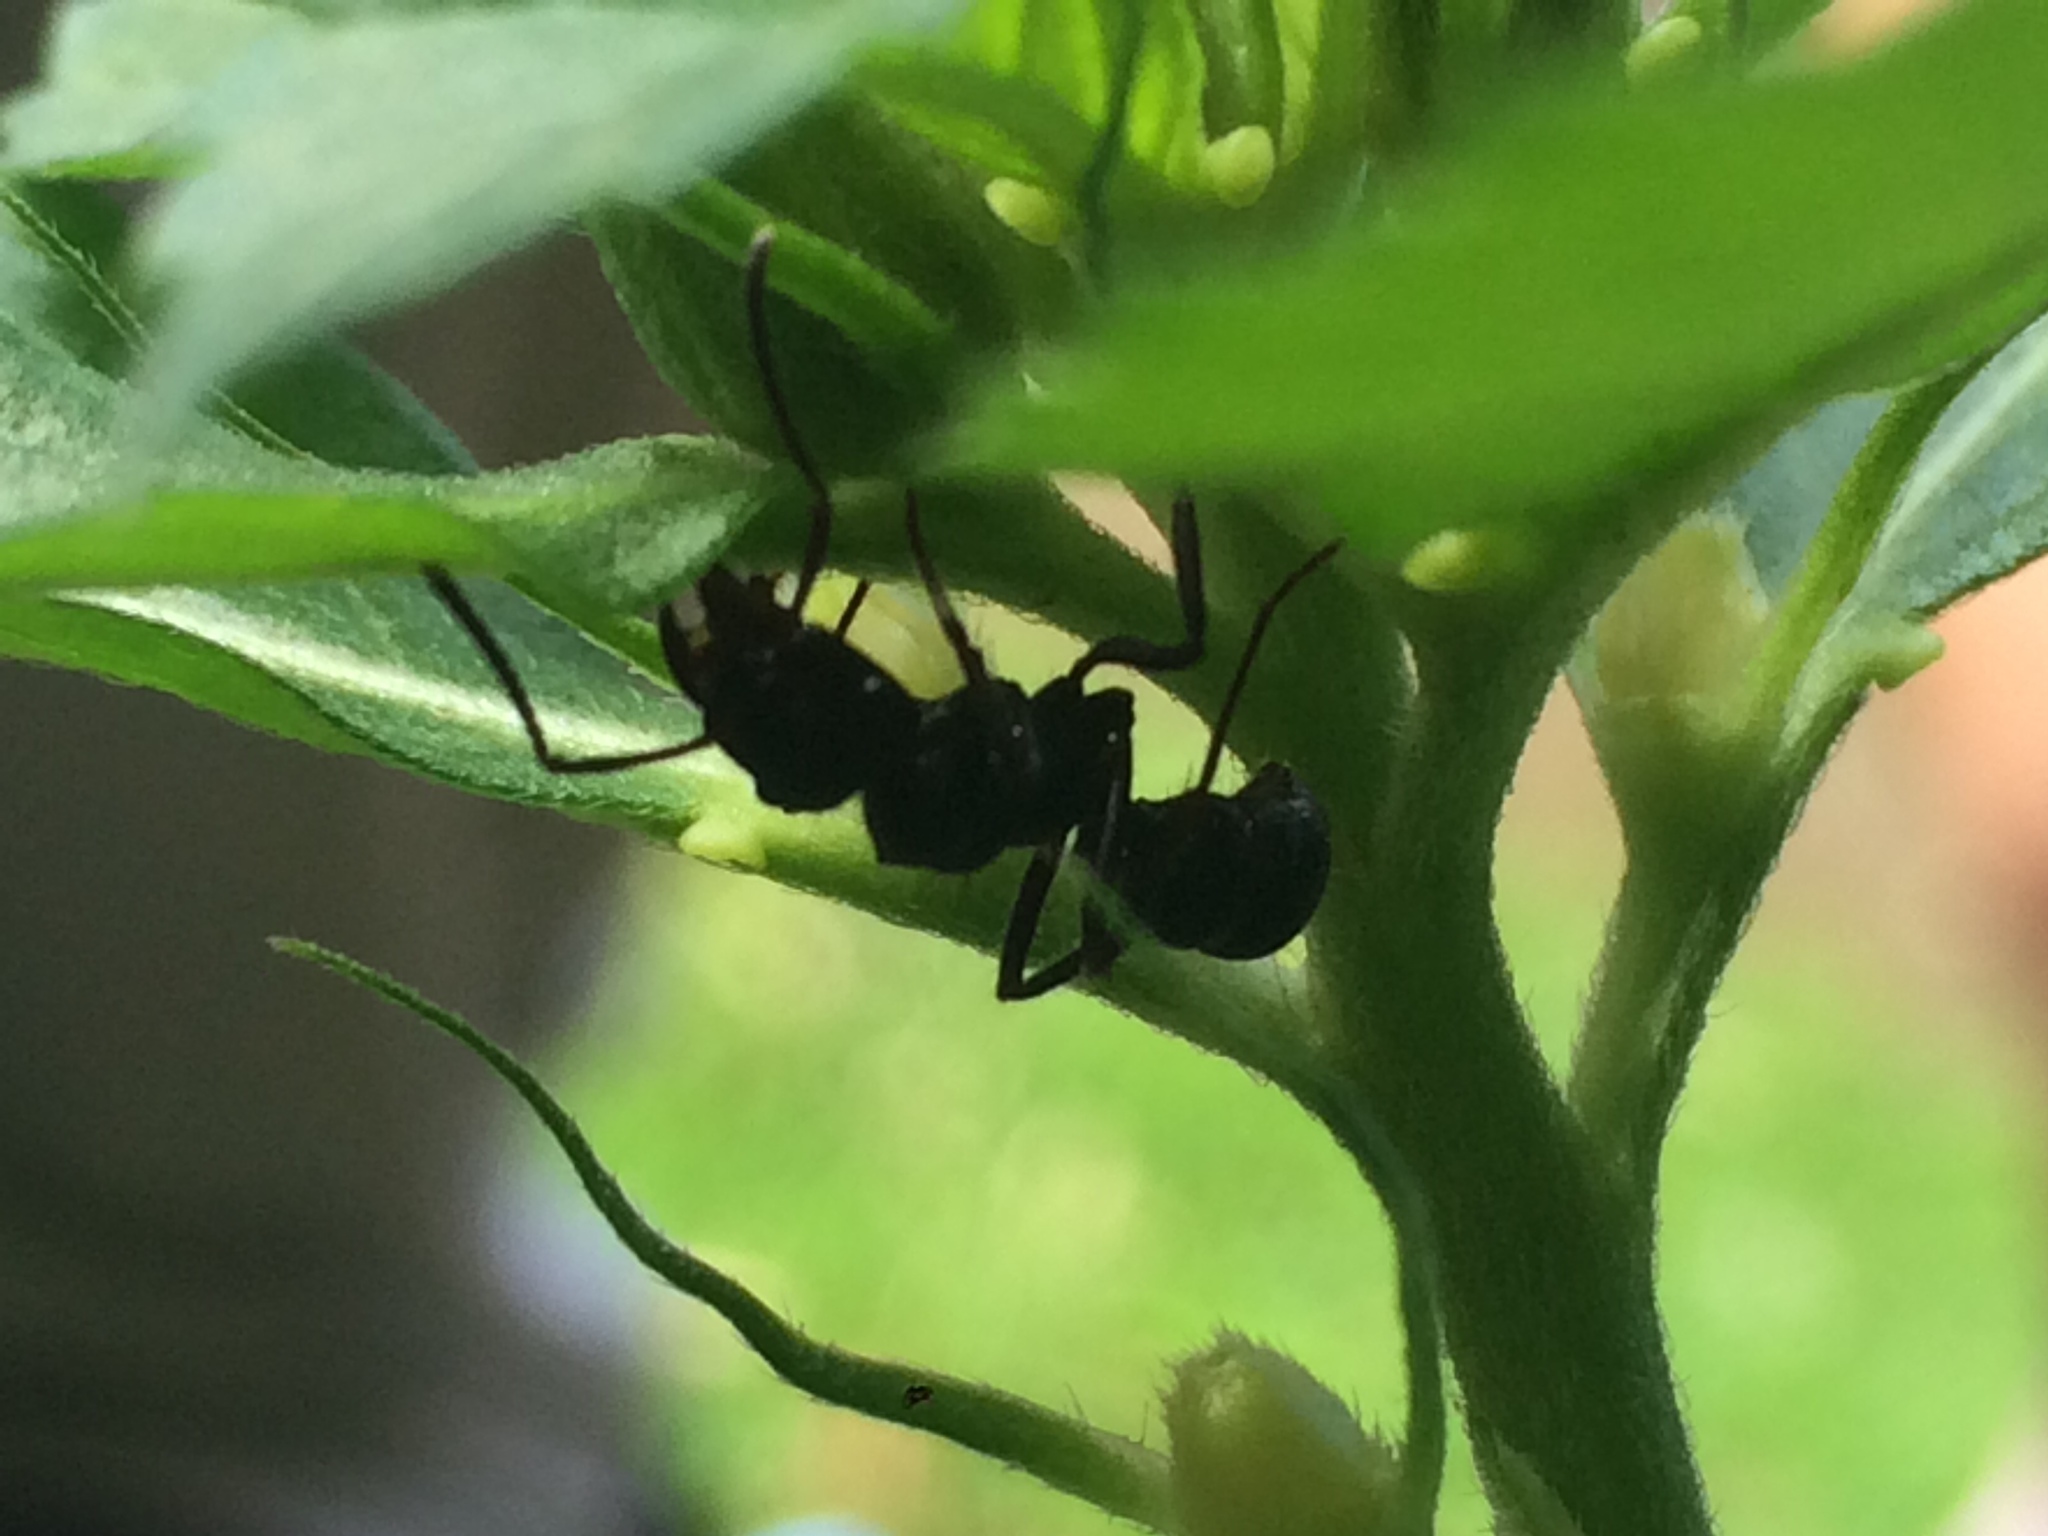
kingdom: Animalia
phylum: Arthropoda
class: Insecta
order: Hymenoptera
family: Formicidae
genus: Ectatomma
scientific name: Ectatomma brunneum
